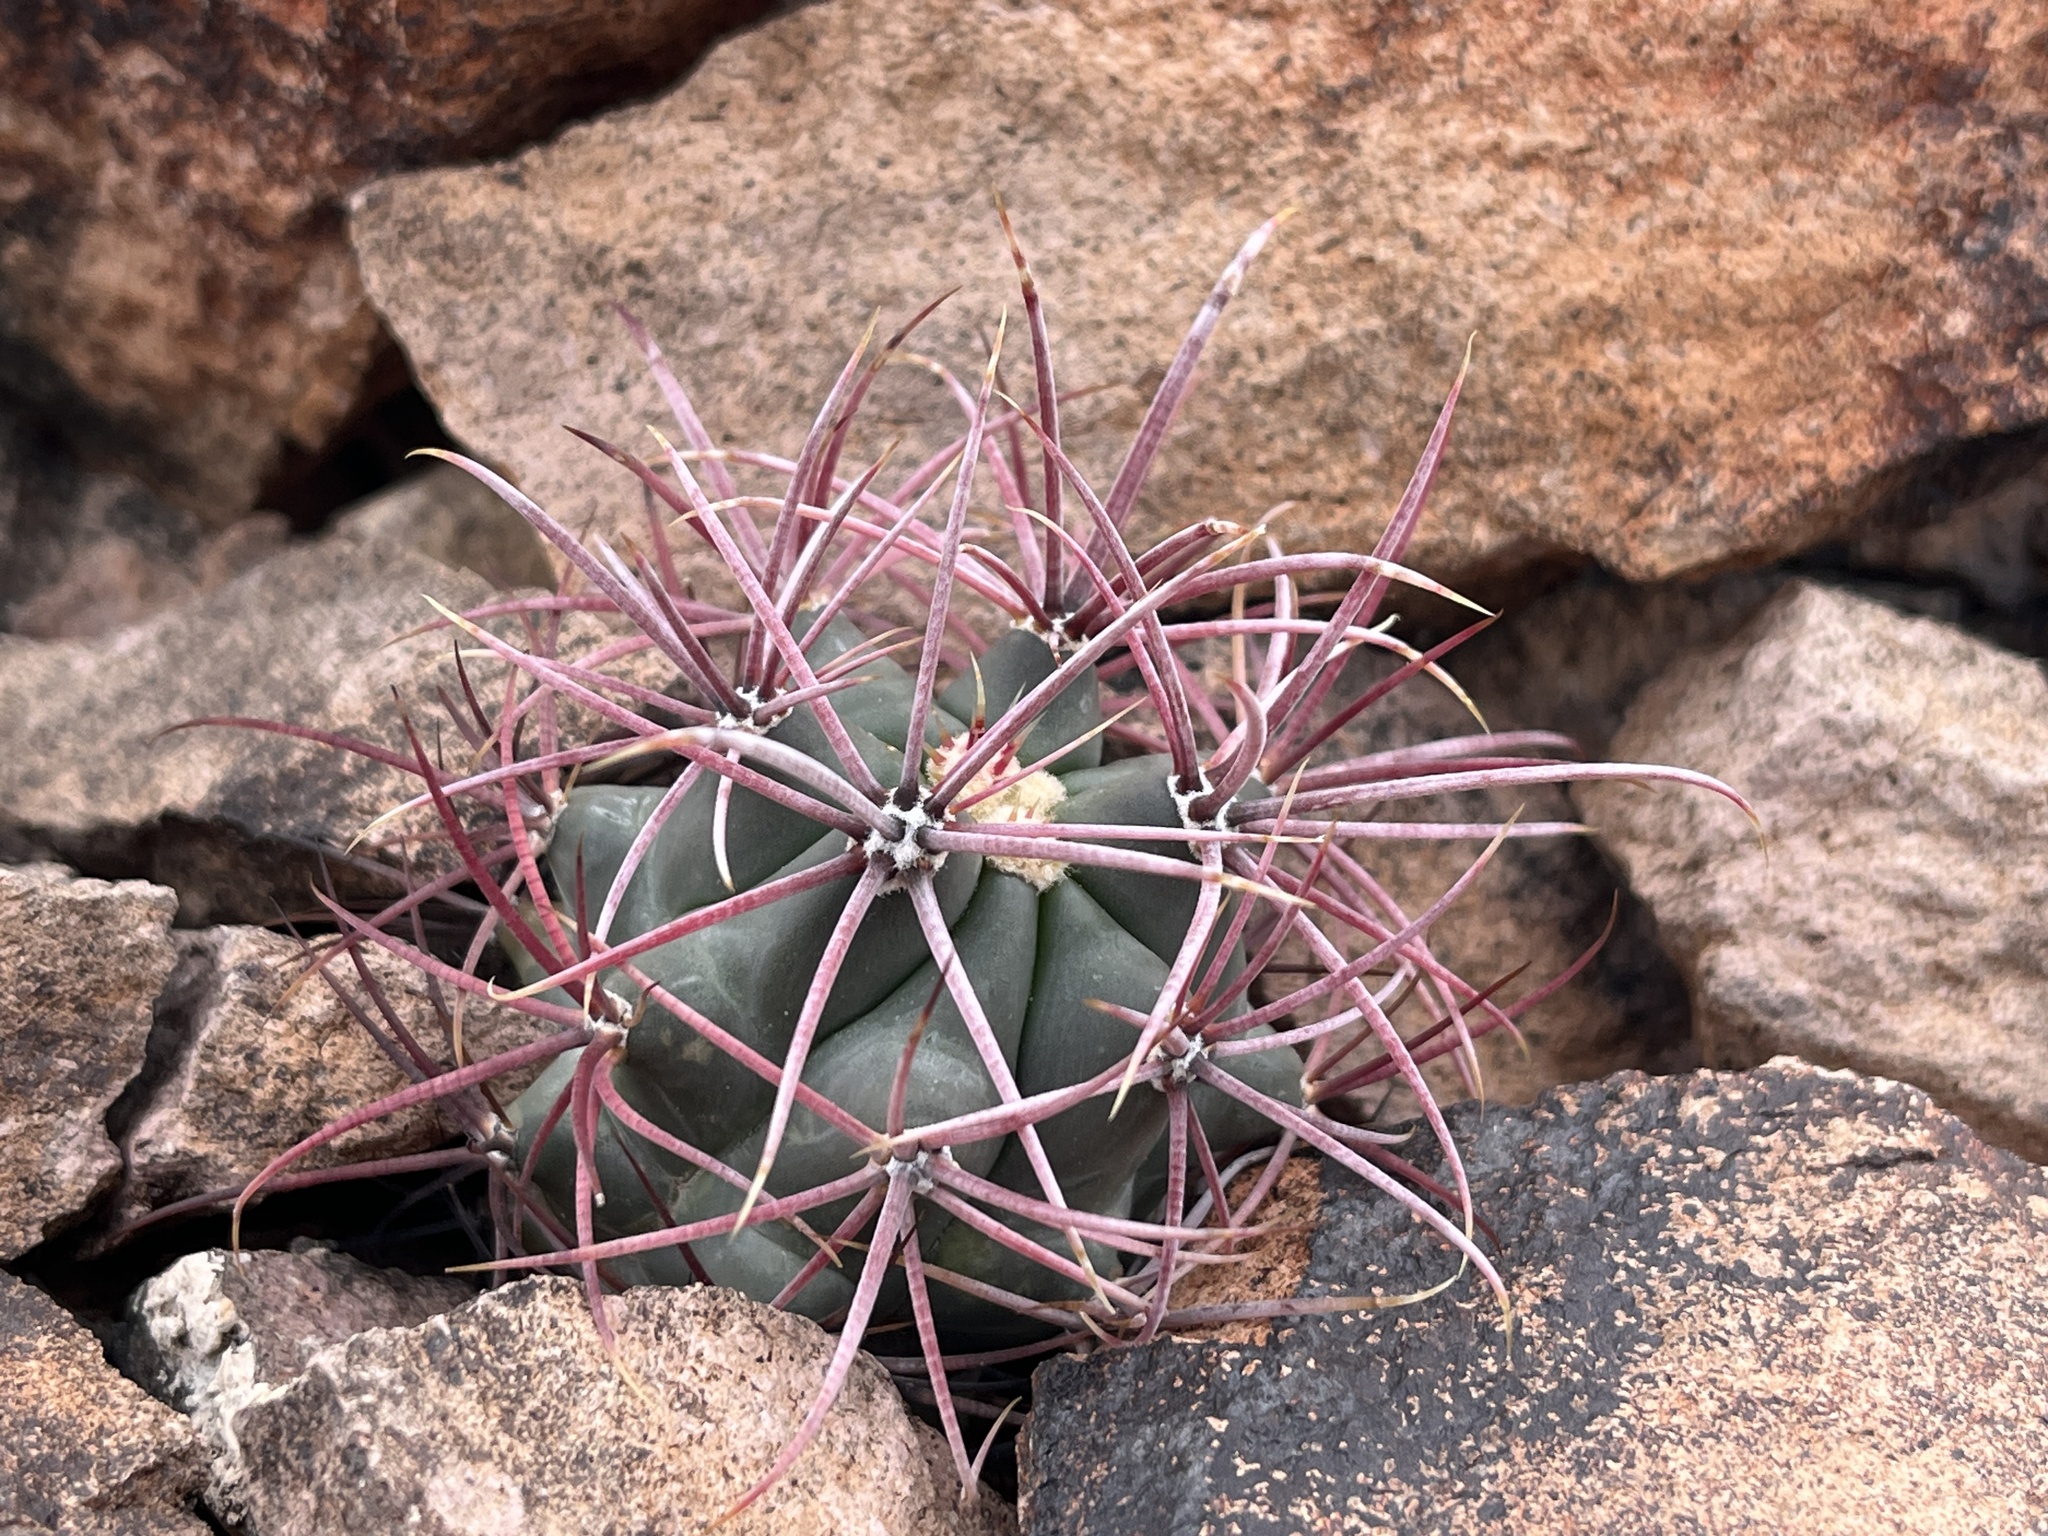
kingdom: Plantae
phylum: Tracheophyta
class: Magnoliopsida
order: Caryophyllales
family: Cactaceae
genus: Ferocactus
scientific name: Ferocactus cylindraceus
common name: California barrel cactus
